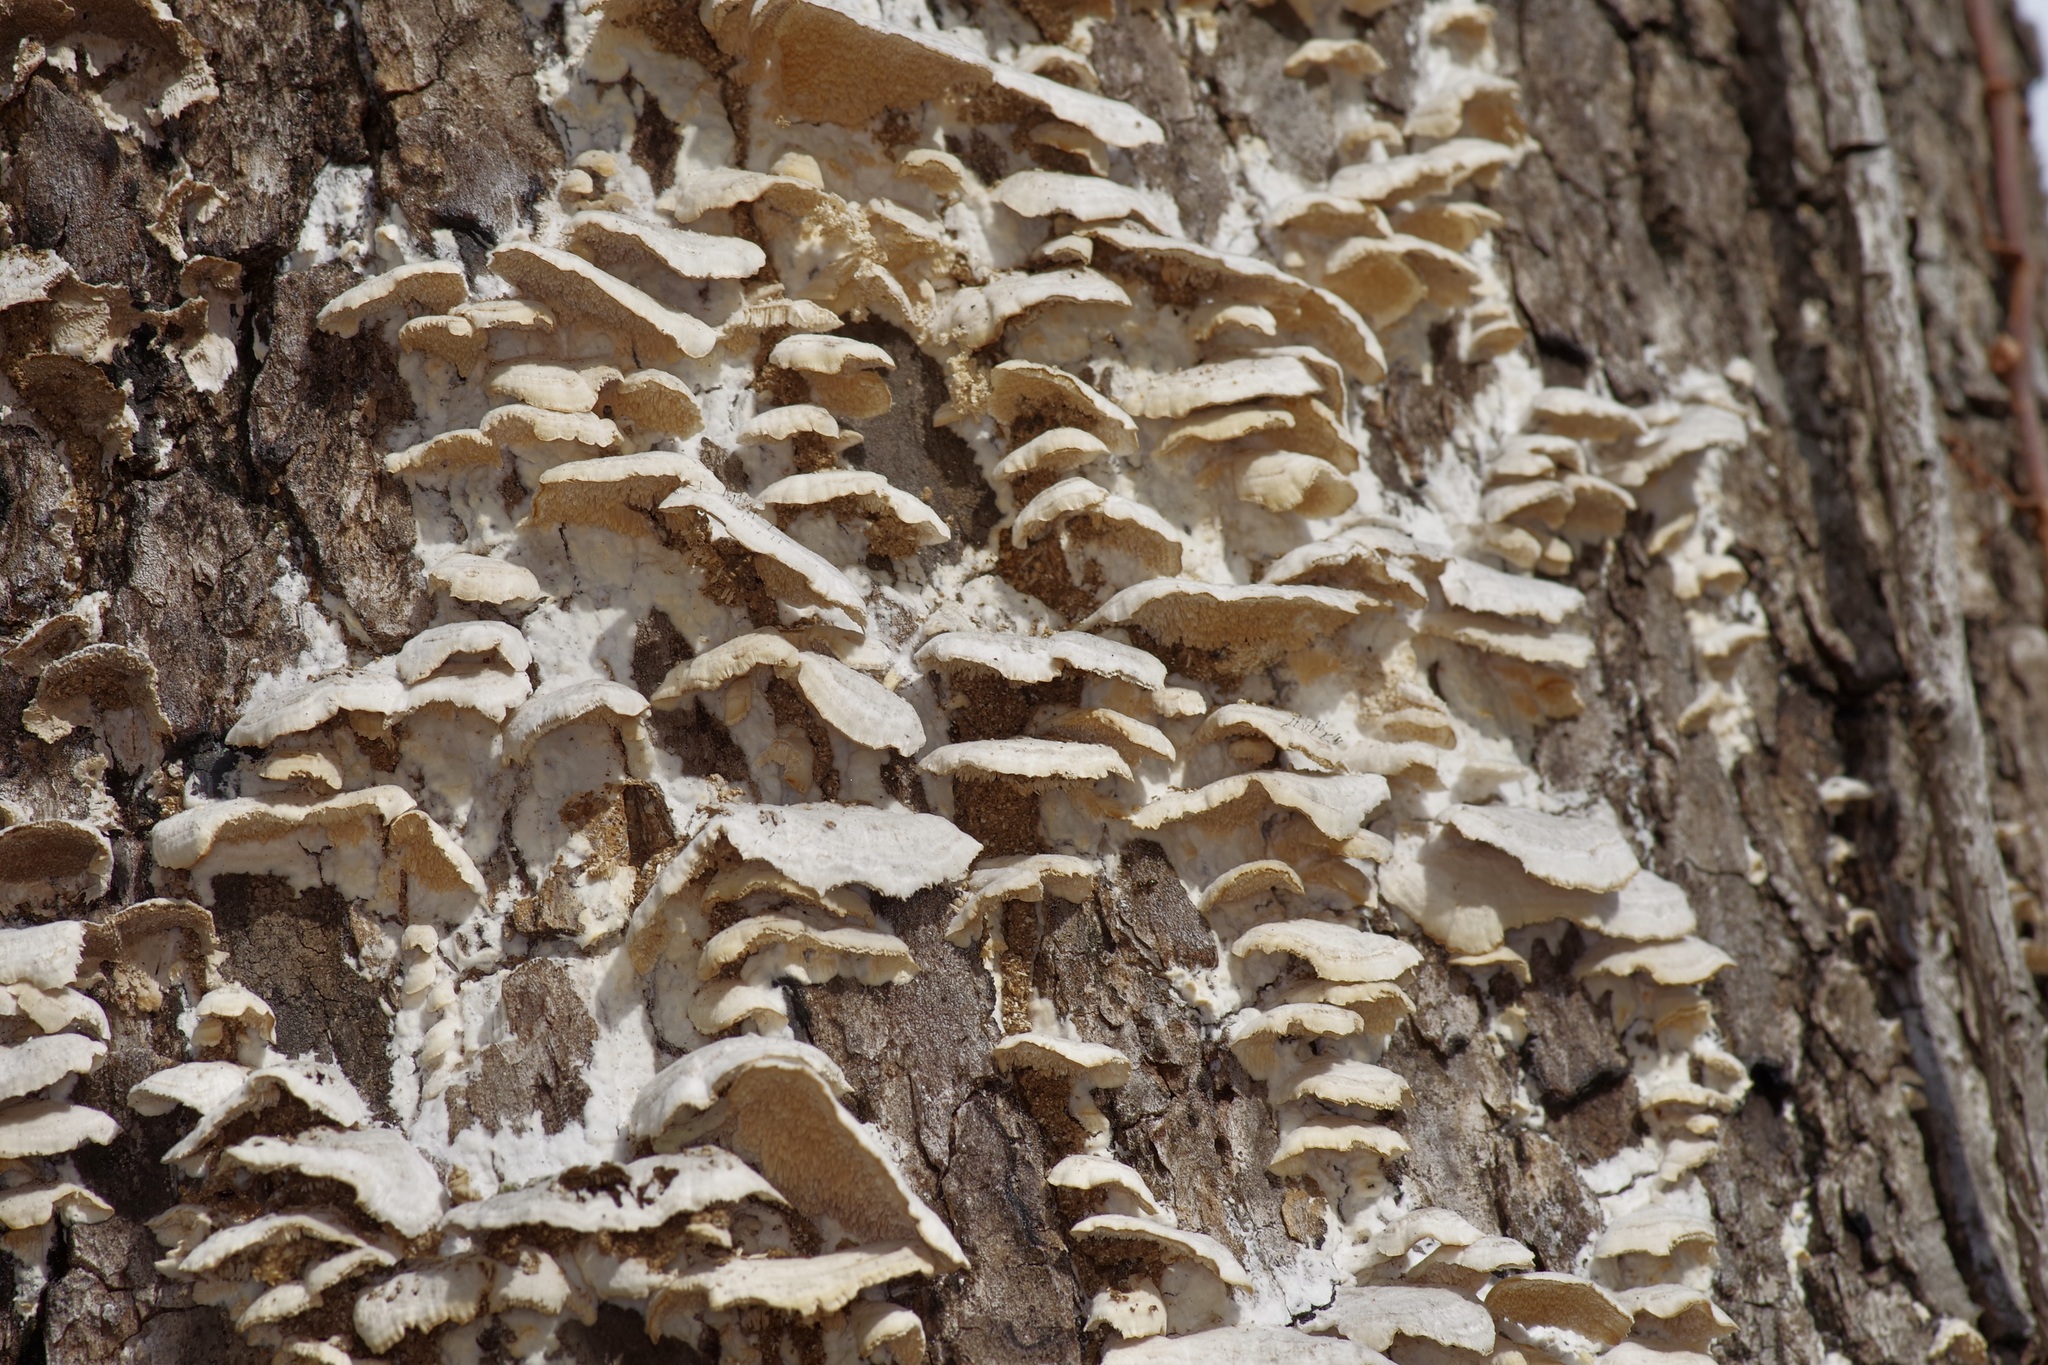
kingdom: Fungi
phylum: Basidiomycota
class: Agaricomycetes
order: Polyporales
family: Meruliaceae
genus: Irpiciporus
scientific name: Irpiciporus pachyodon
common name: Marshmallow polypore
